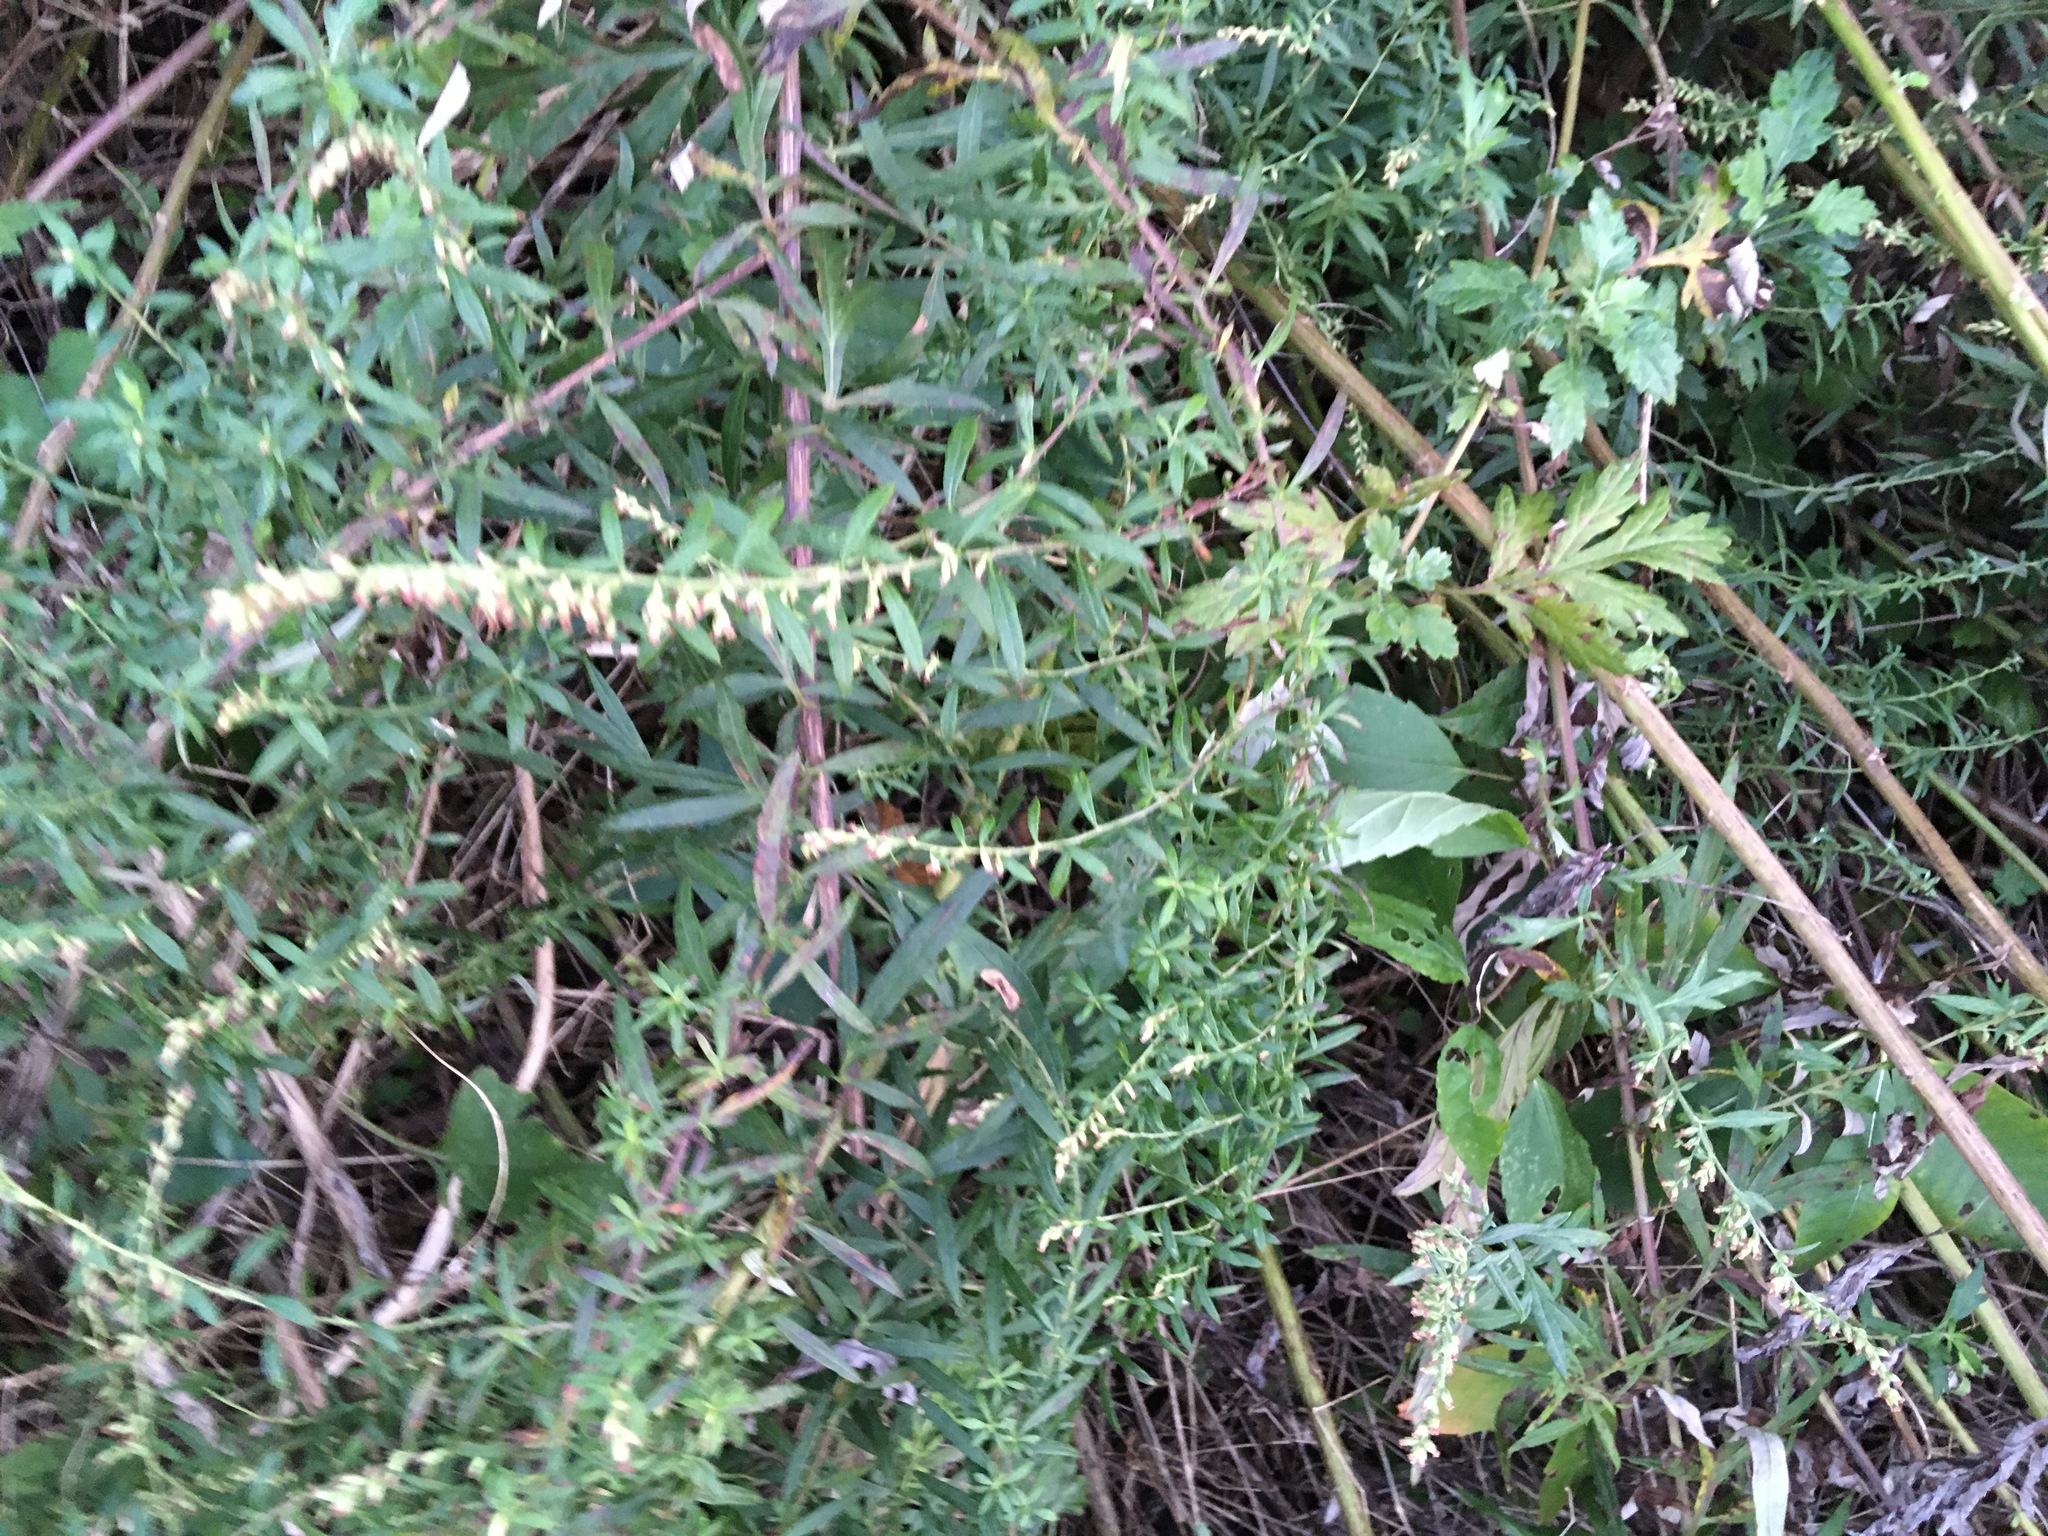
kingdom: Plantae
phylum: Tracheophyta
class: Magnoliopsida
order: Asterales
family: Asteraceae
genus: Artemisia
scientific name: Artemisia vulgaris
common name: Mugwort
